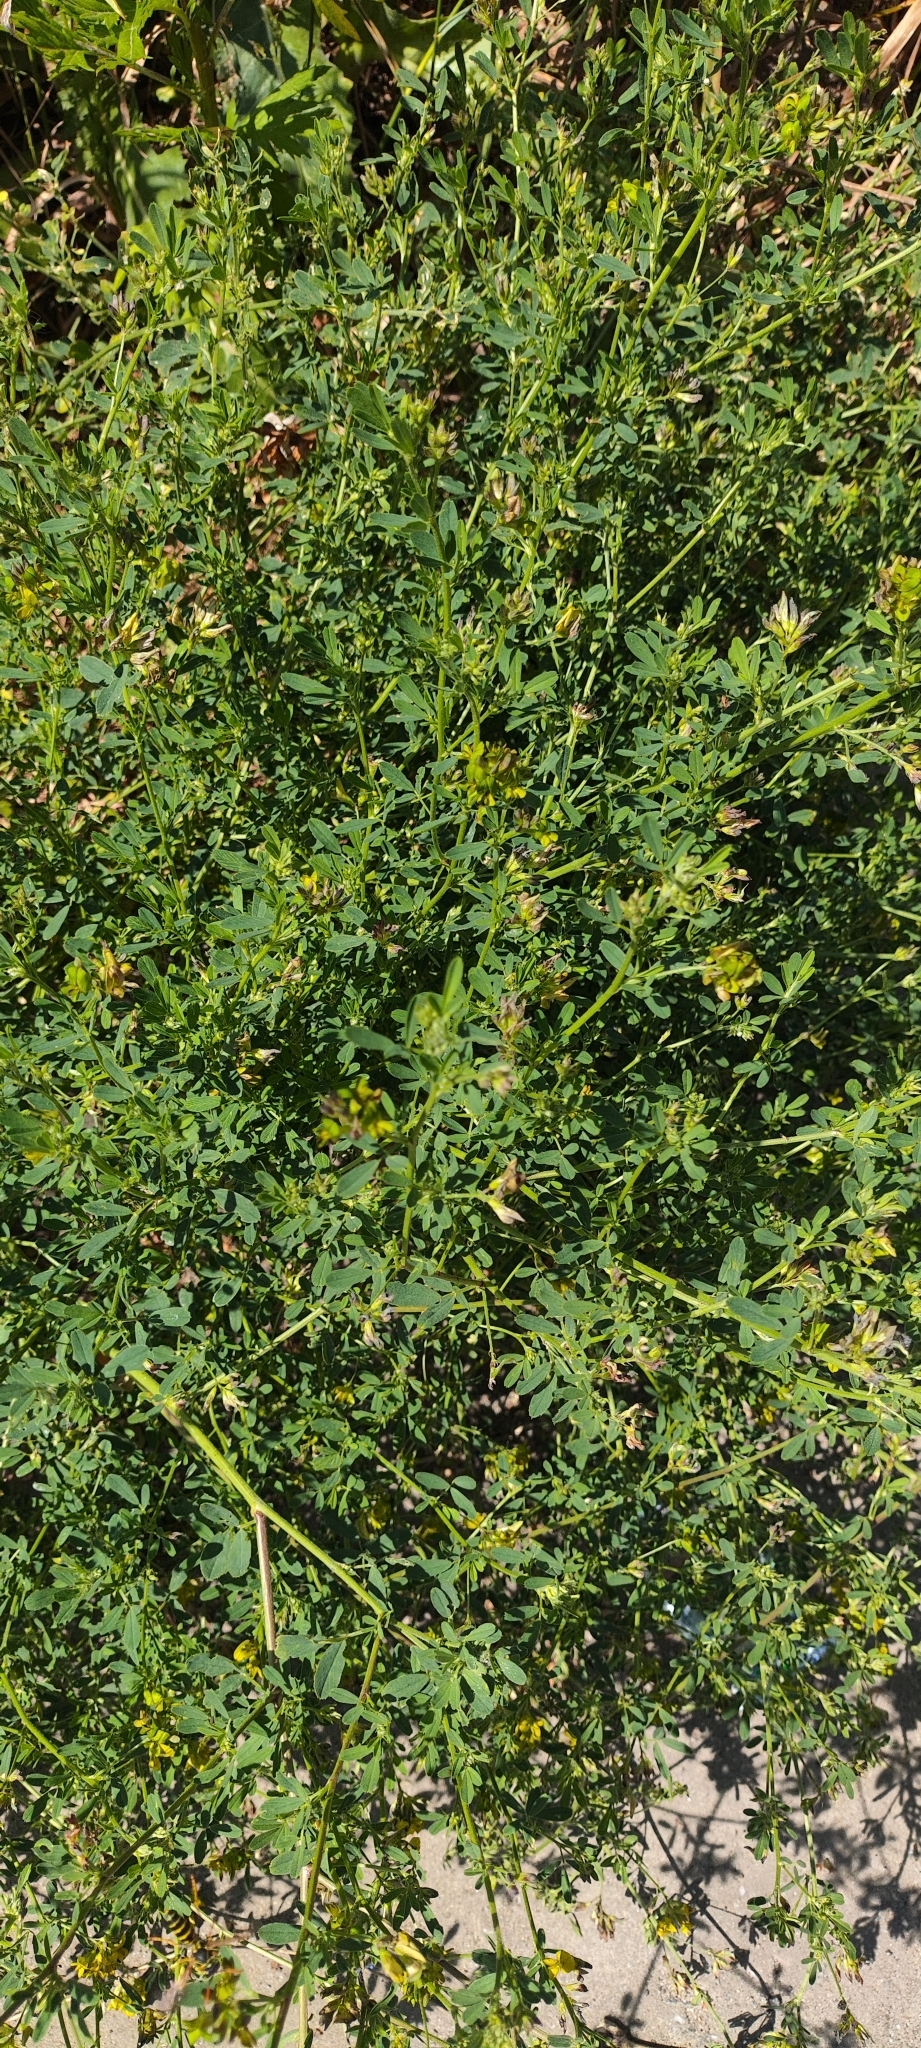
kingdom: Plantae
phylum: Tracheophyta
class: Magnoliopsida
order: Fabales
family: Fabaceae
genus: Medicago
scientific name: Medicago varia
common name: Sand lucerne
